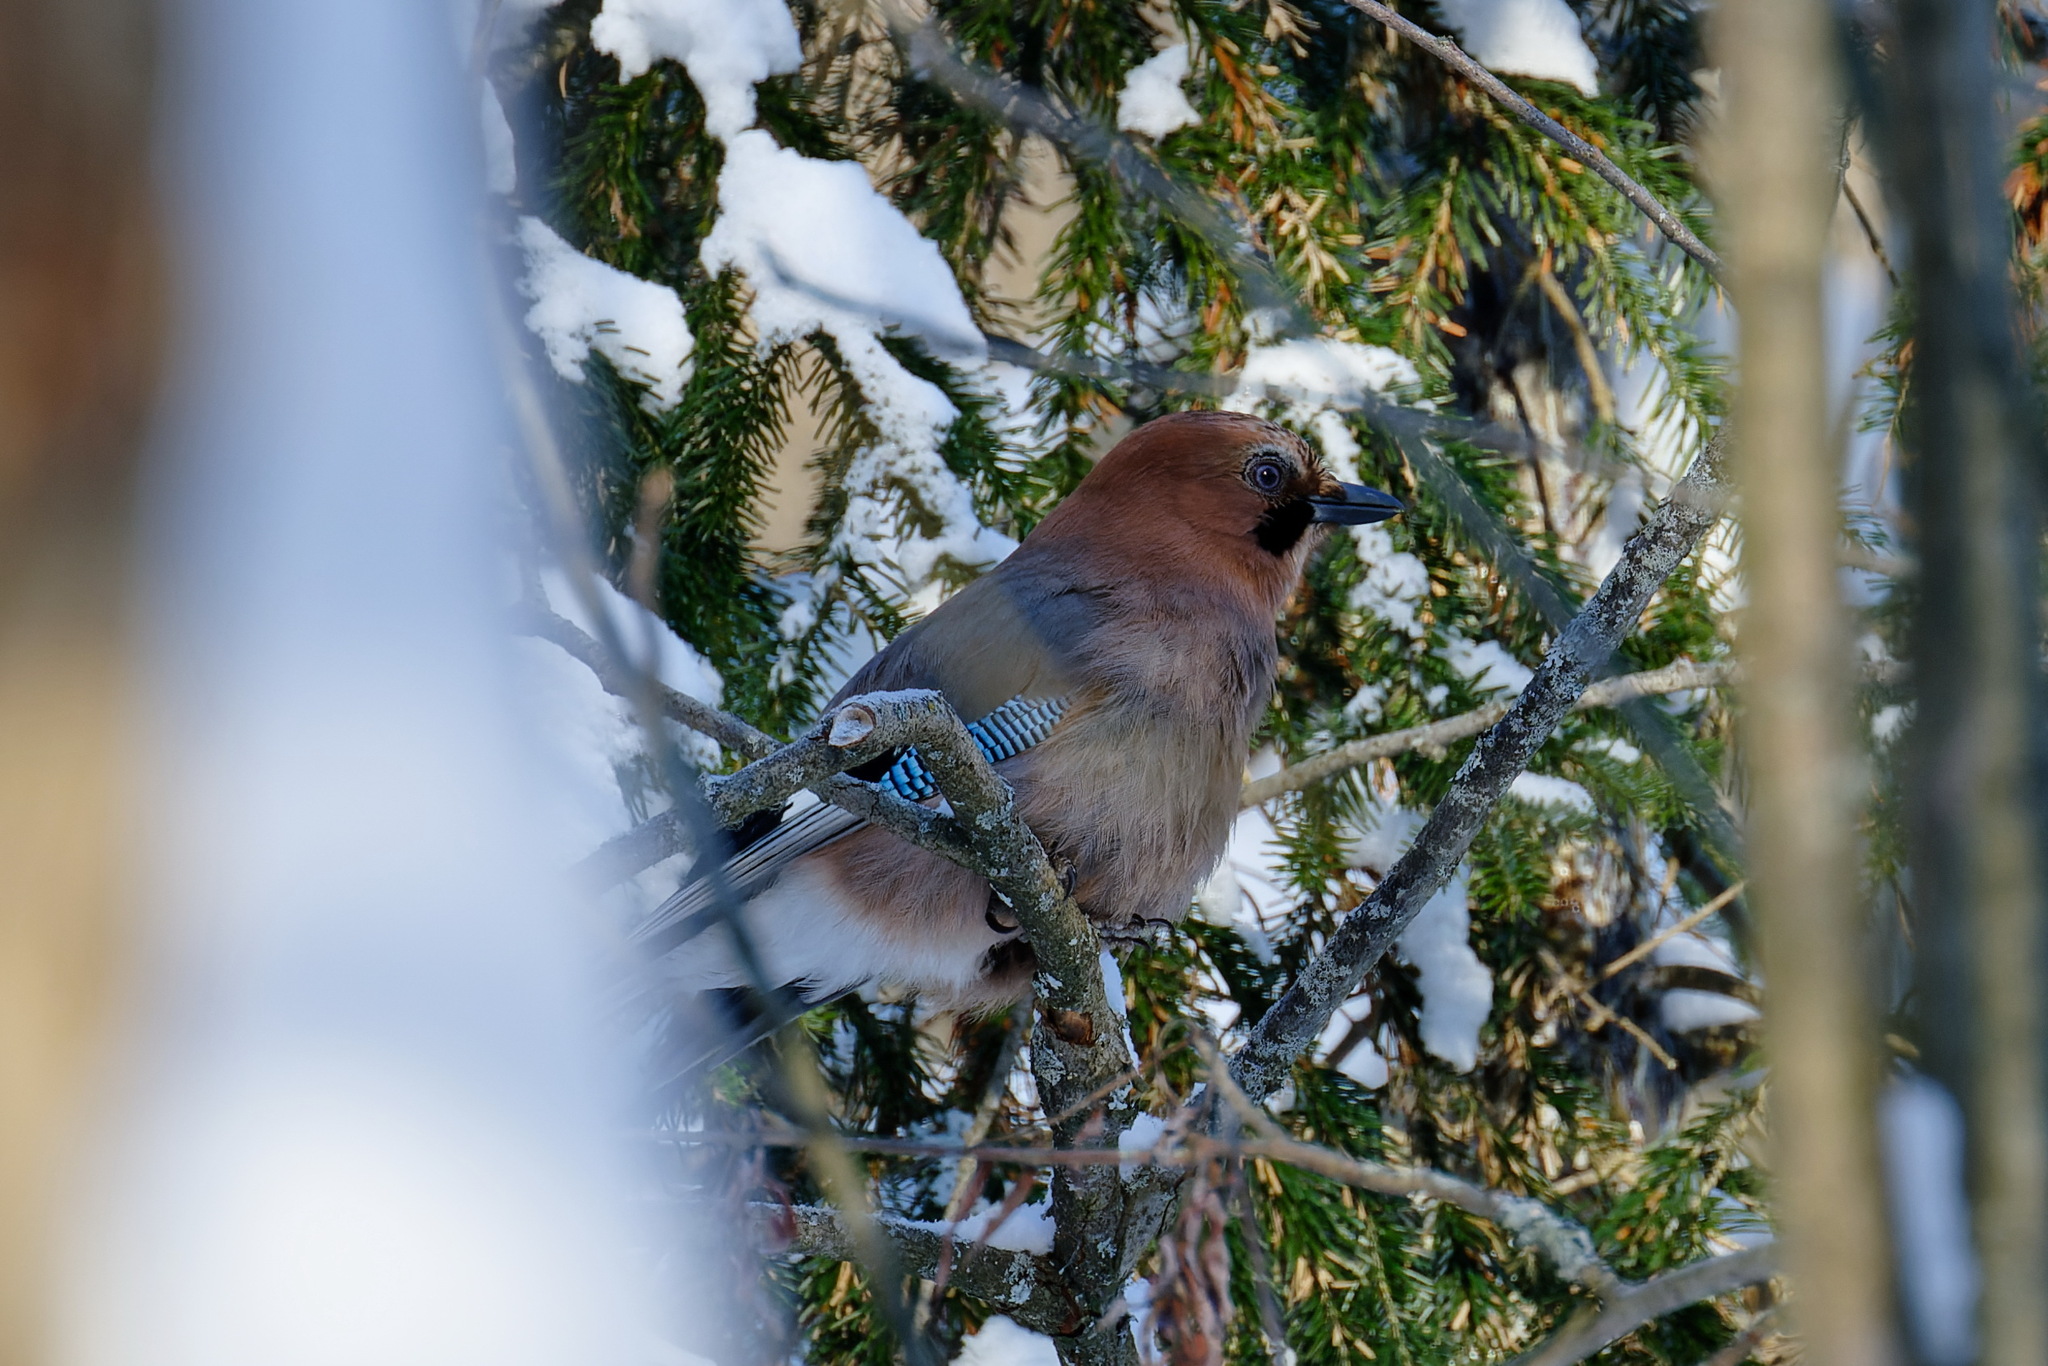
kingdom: Animalia
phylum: Chordata
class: Aves
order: Passeriformes
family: Corvidae
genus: Garrulus
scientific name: Garrulus glandarius
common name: Eurasian jay
